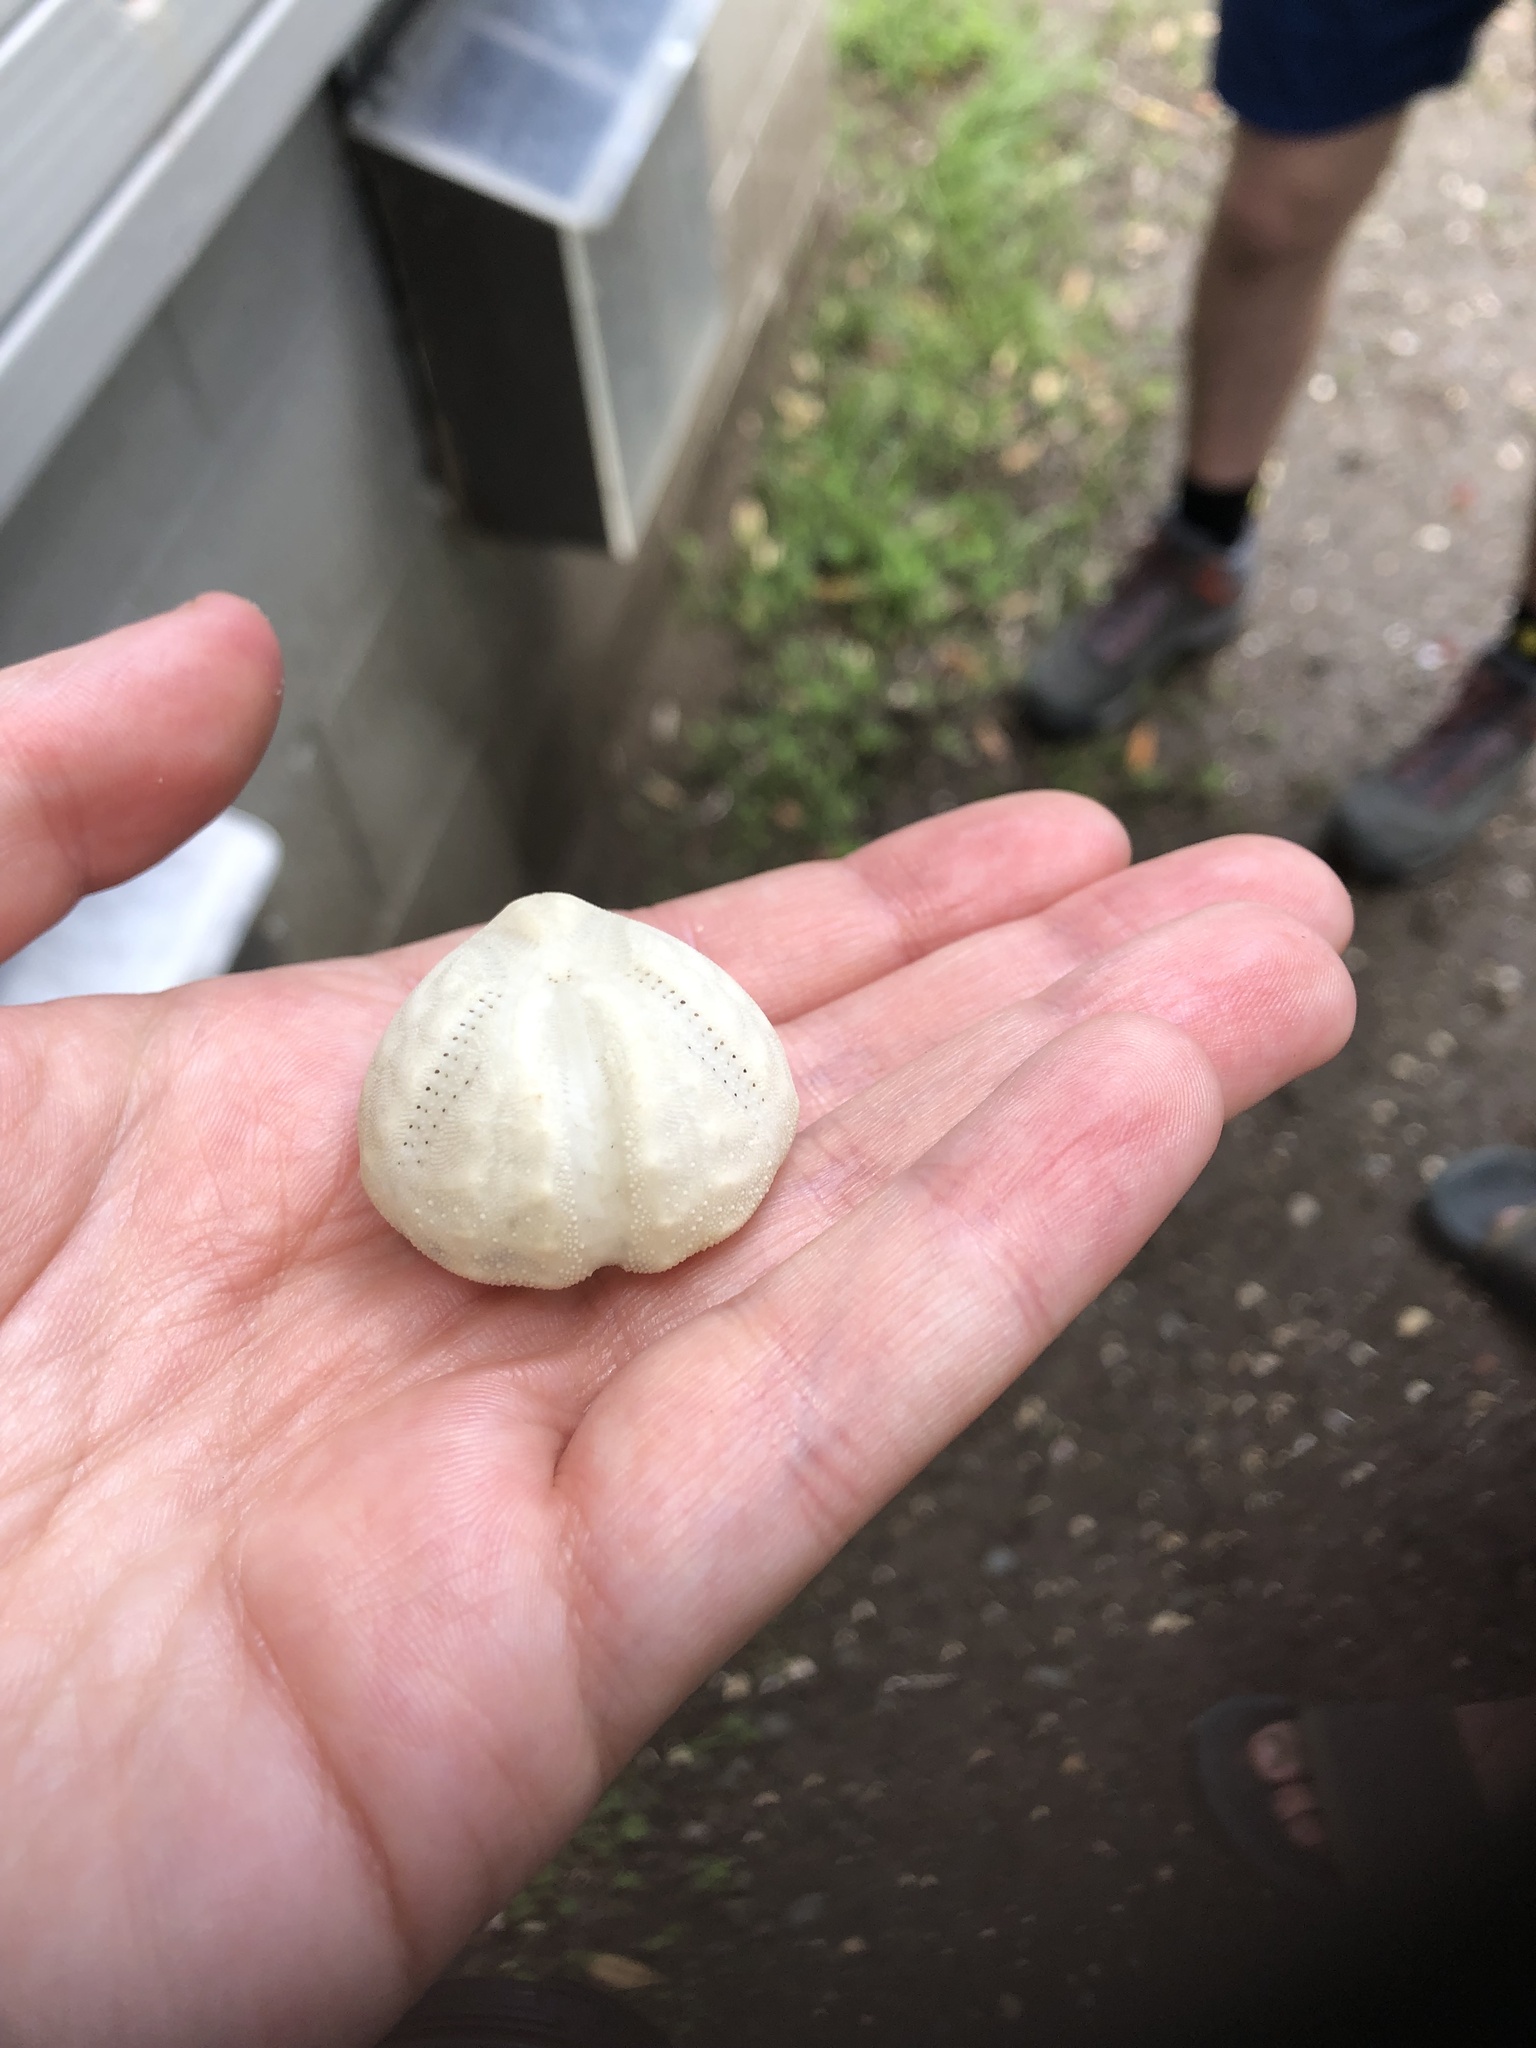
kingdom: Animalia
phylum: Echinodermata
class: Echinoidea
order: Spatangoida
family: Loveniidae
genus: Echinocardium
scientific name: Echinocardium cordatum
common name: Heart-urchin
